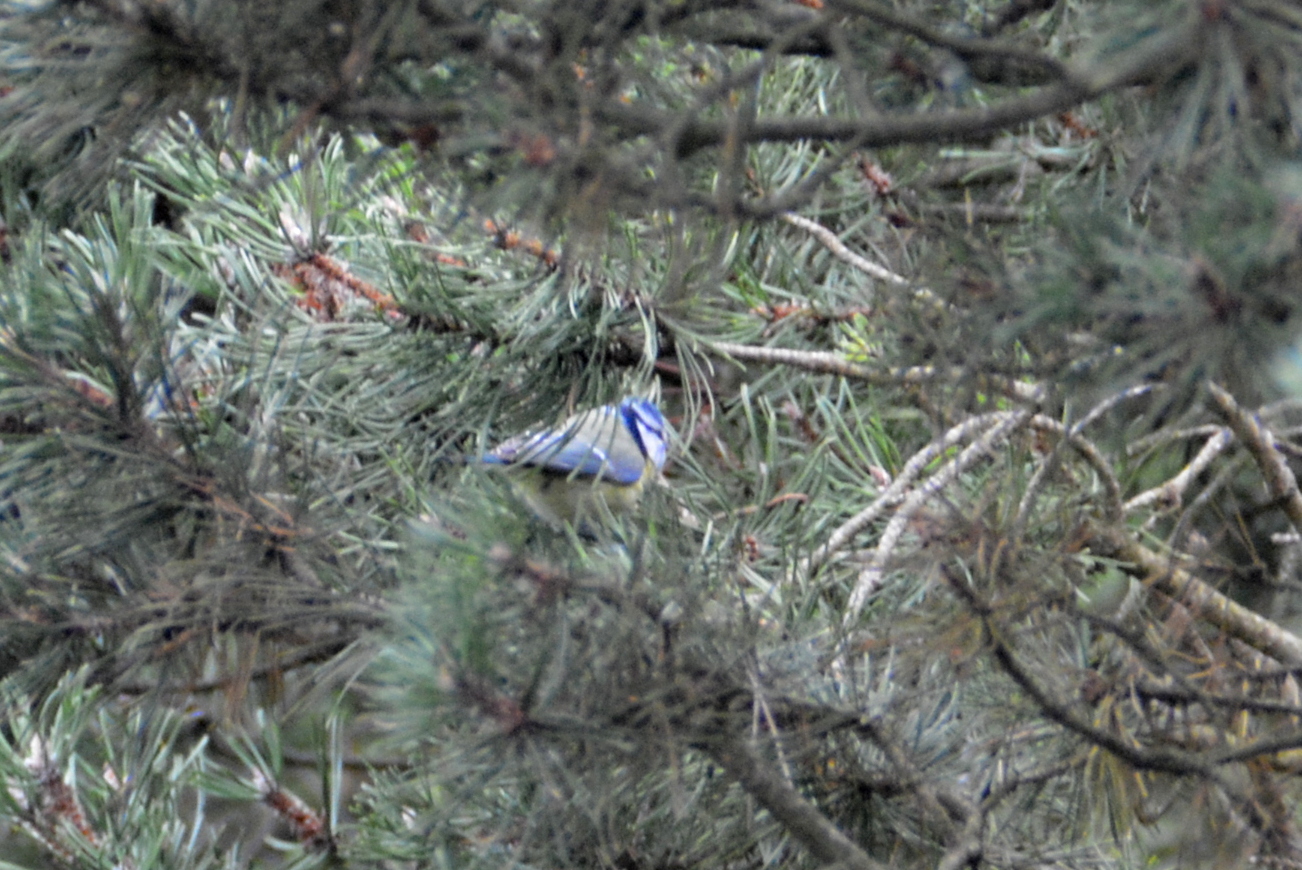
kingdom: Animalia
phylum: Chordata
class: Aves
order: Passeriformes
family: Paridae
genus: Cyanistes
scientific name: Cyanistes caeruleus
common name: Eurasian blue tit
